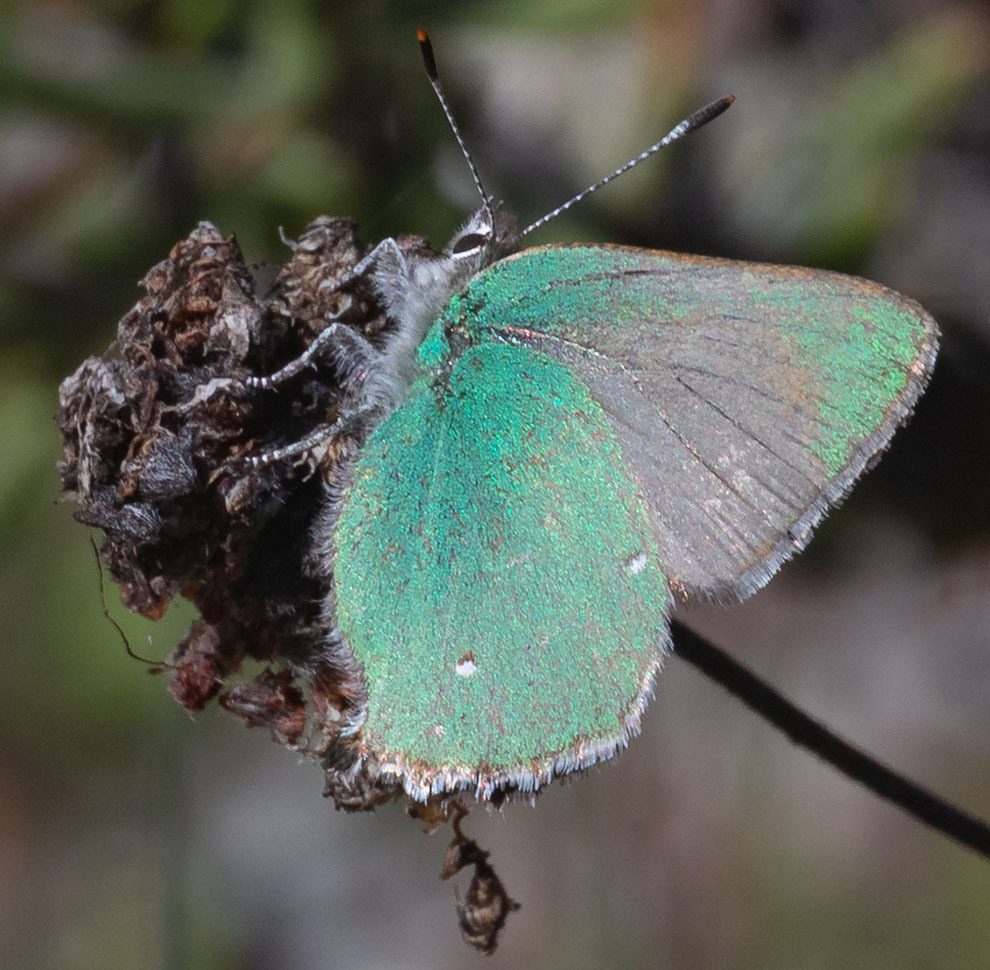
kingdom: Animalia
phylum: Arthropoda
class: Insecta
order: Lepidoptera
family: Lycaenidae
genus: Callophrys
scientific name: Callophrys dumetorum
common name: Bramble hairstreak
